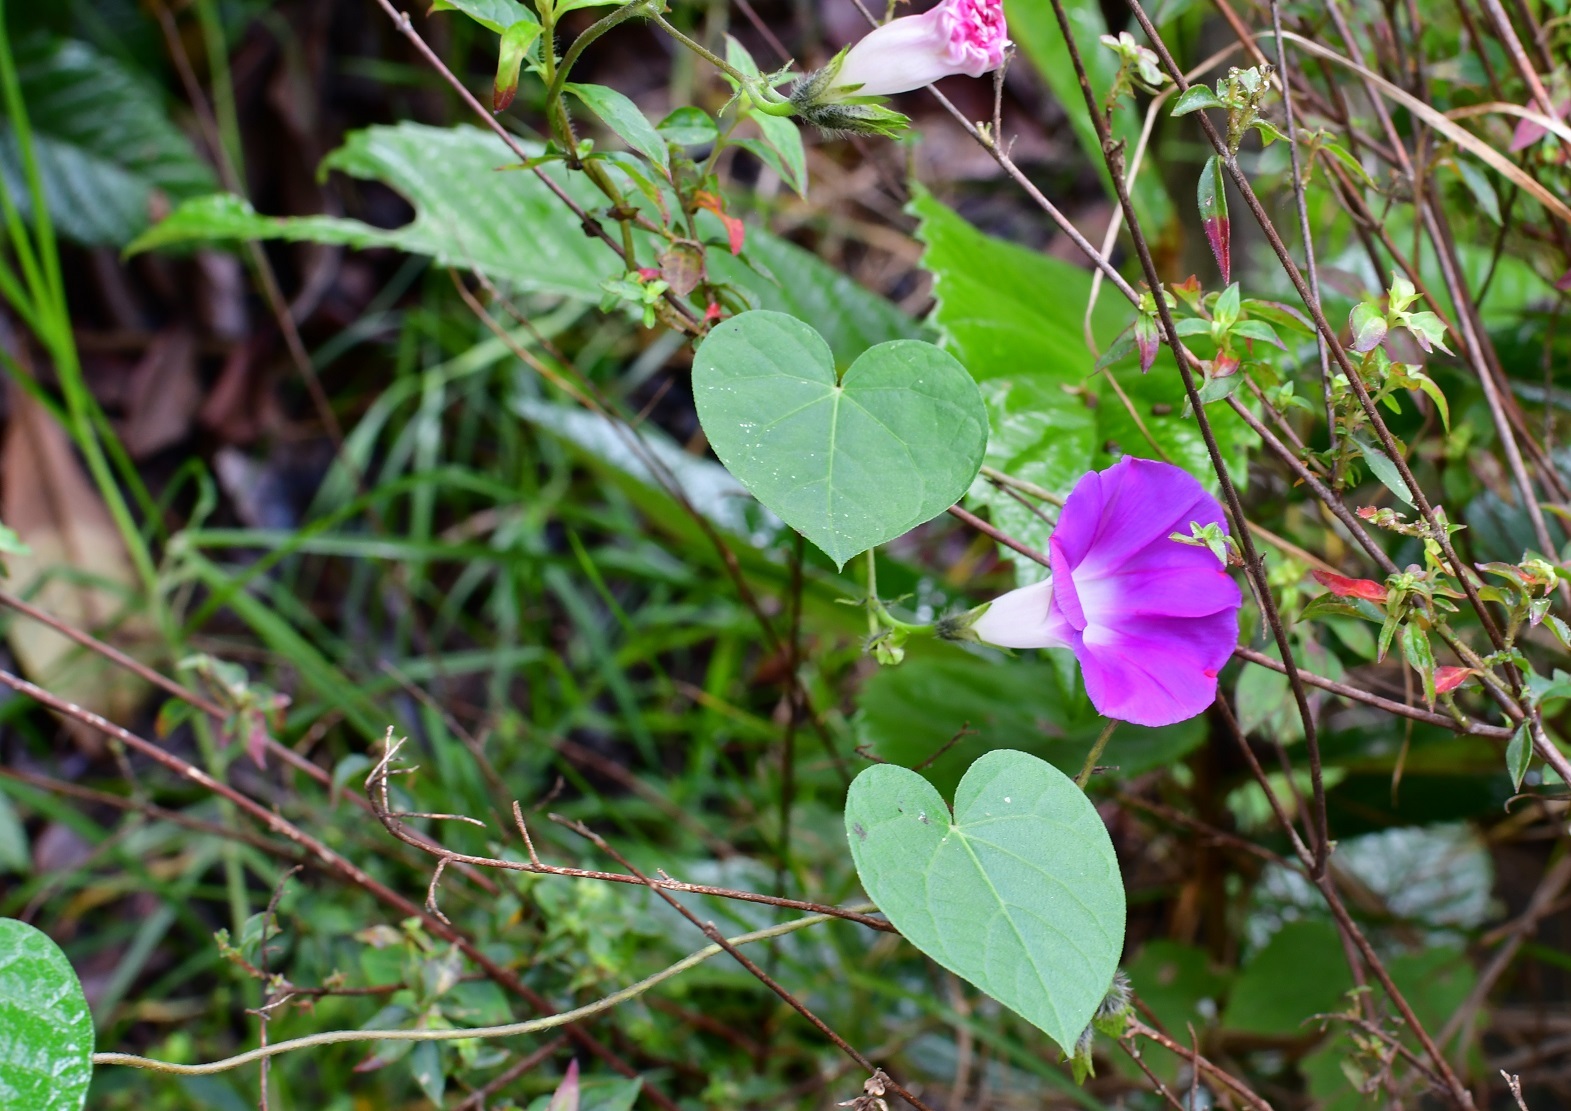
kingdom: Plantae
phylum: Tracheophyta
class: Magnoliopsida
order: Solanales
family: Convolvulaceae
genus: Ipomoea
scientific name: Ipomoea purpurea
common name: Common morning-glory
